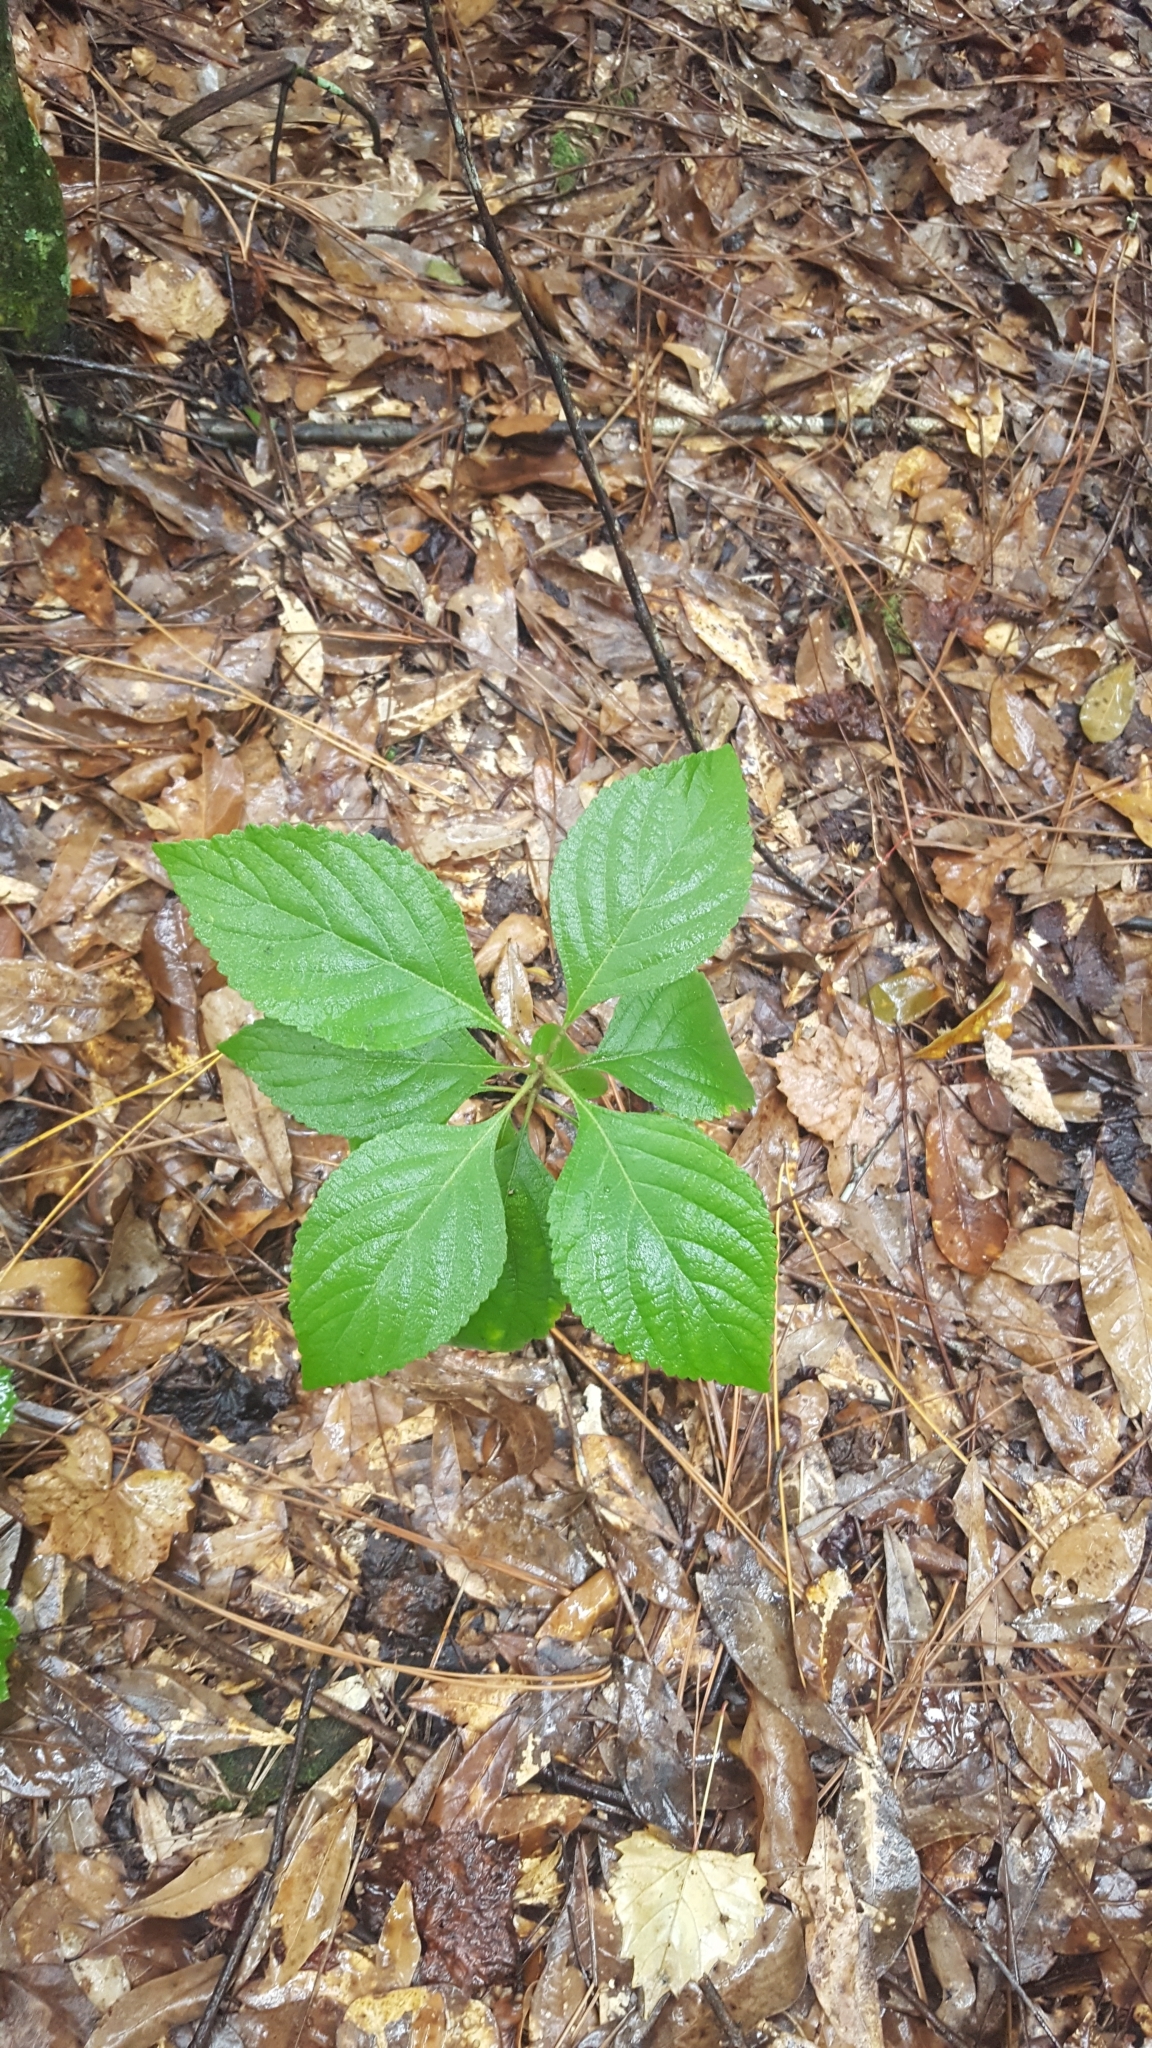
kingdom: Plantae
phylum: Tracheophyta
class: Magnoliopsida
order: Lamiales
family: Lamiaceae
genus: Callicarpa
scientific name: Callicarpa americana
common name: American beautyberry
